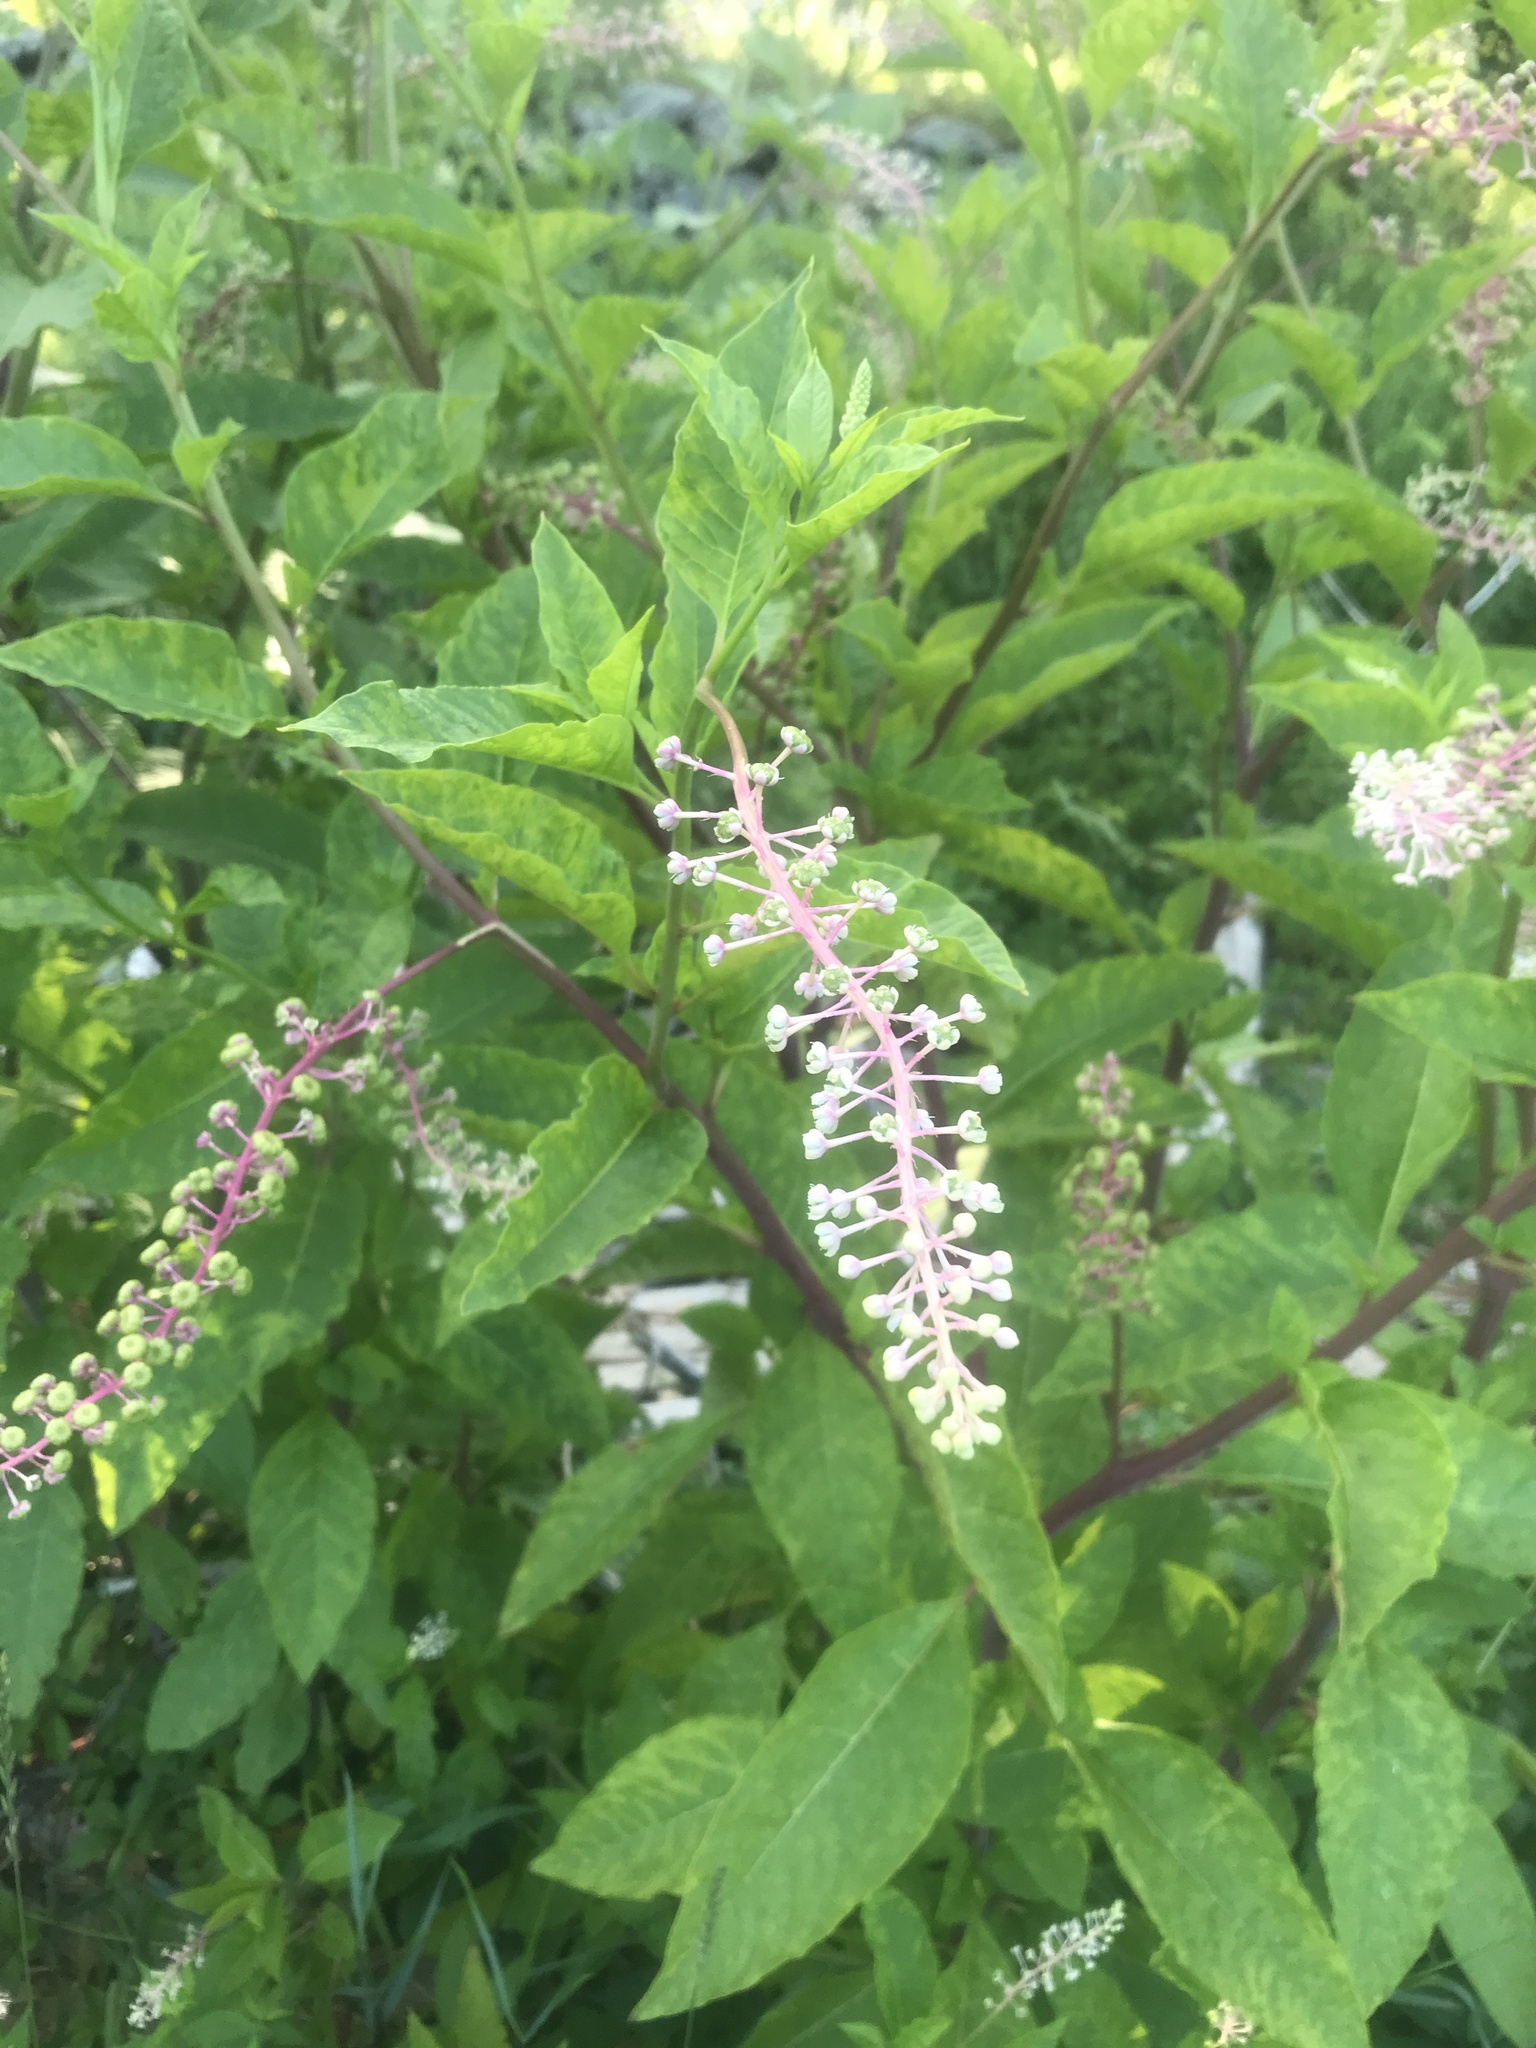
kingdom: Plantae
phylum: Tracheophyta
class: Magnoliopsida
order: Caryophyllales
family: Phytolaccaceae
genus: Phytolacca
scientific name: Phytolacca americana
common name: American pokeweed
